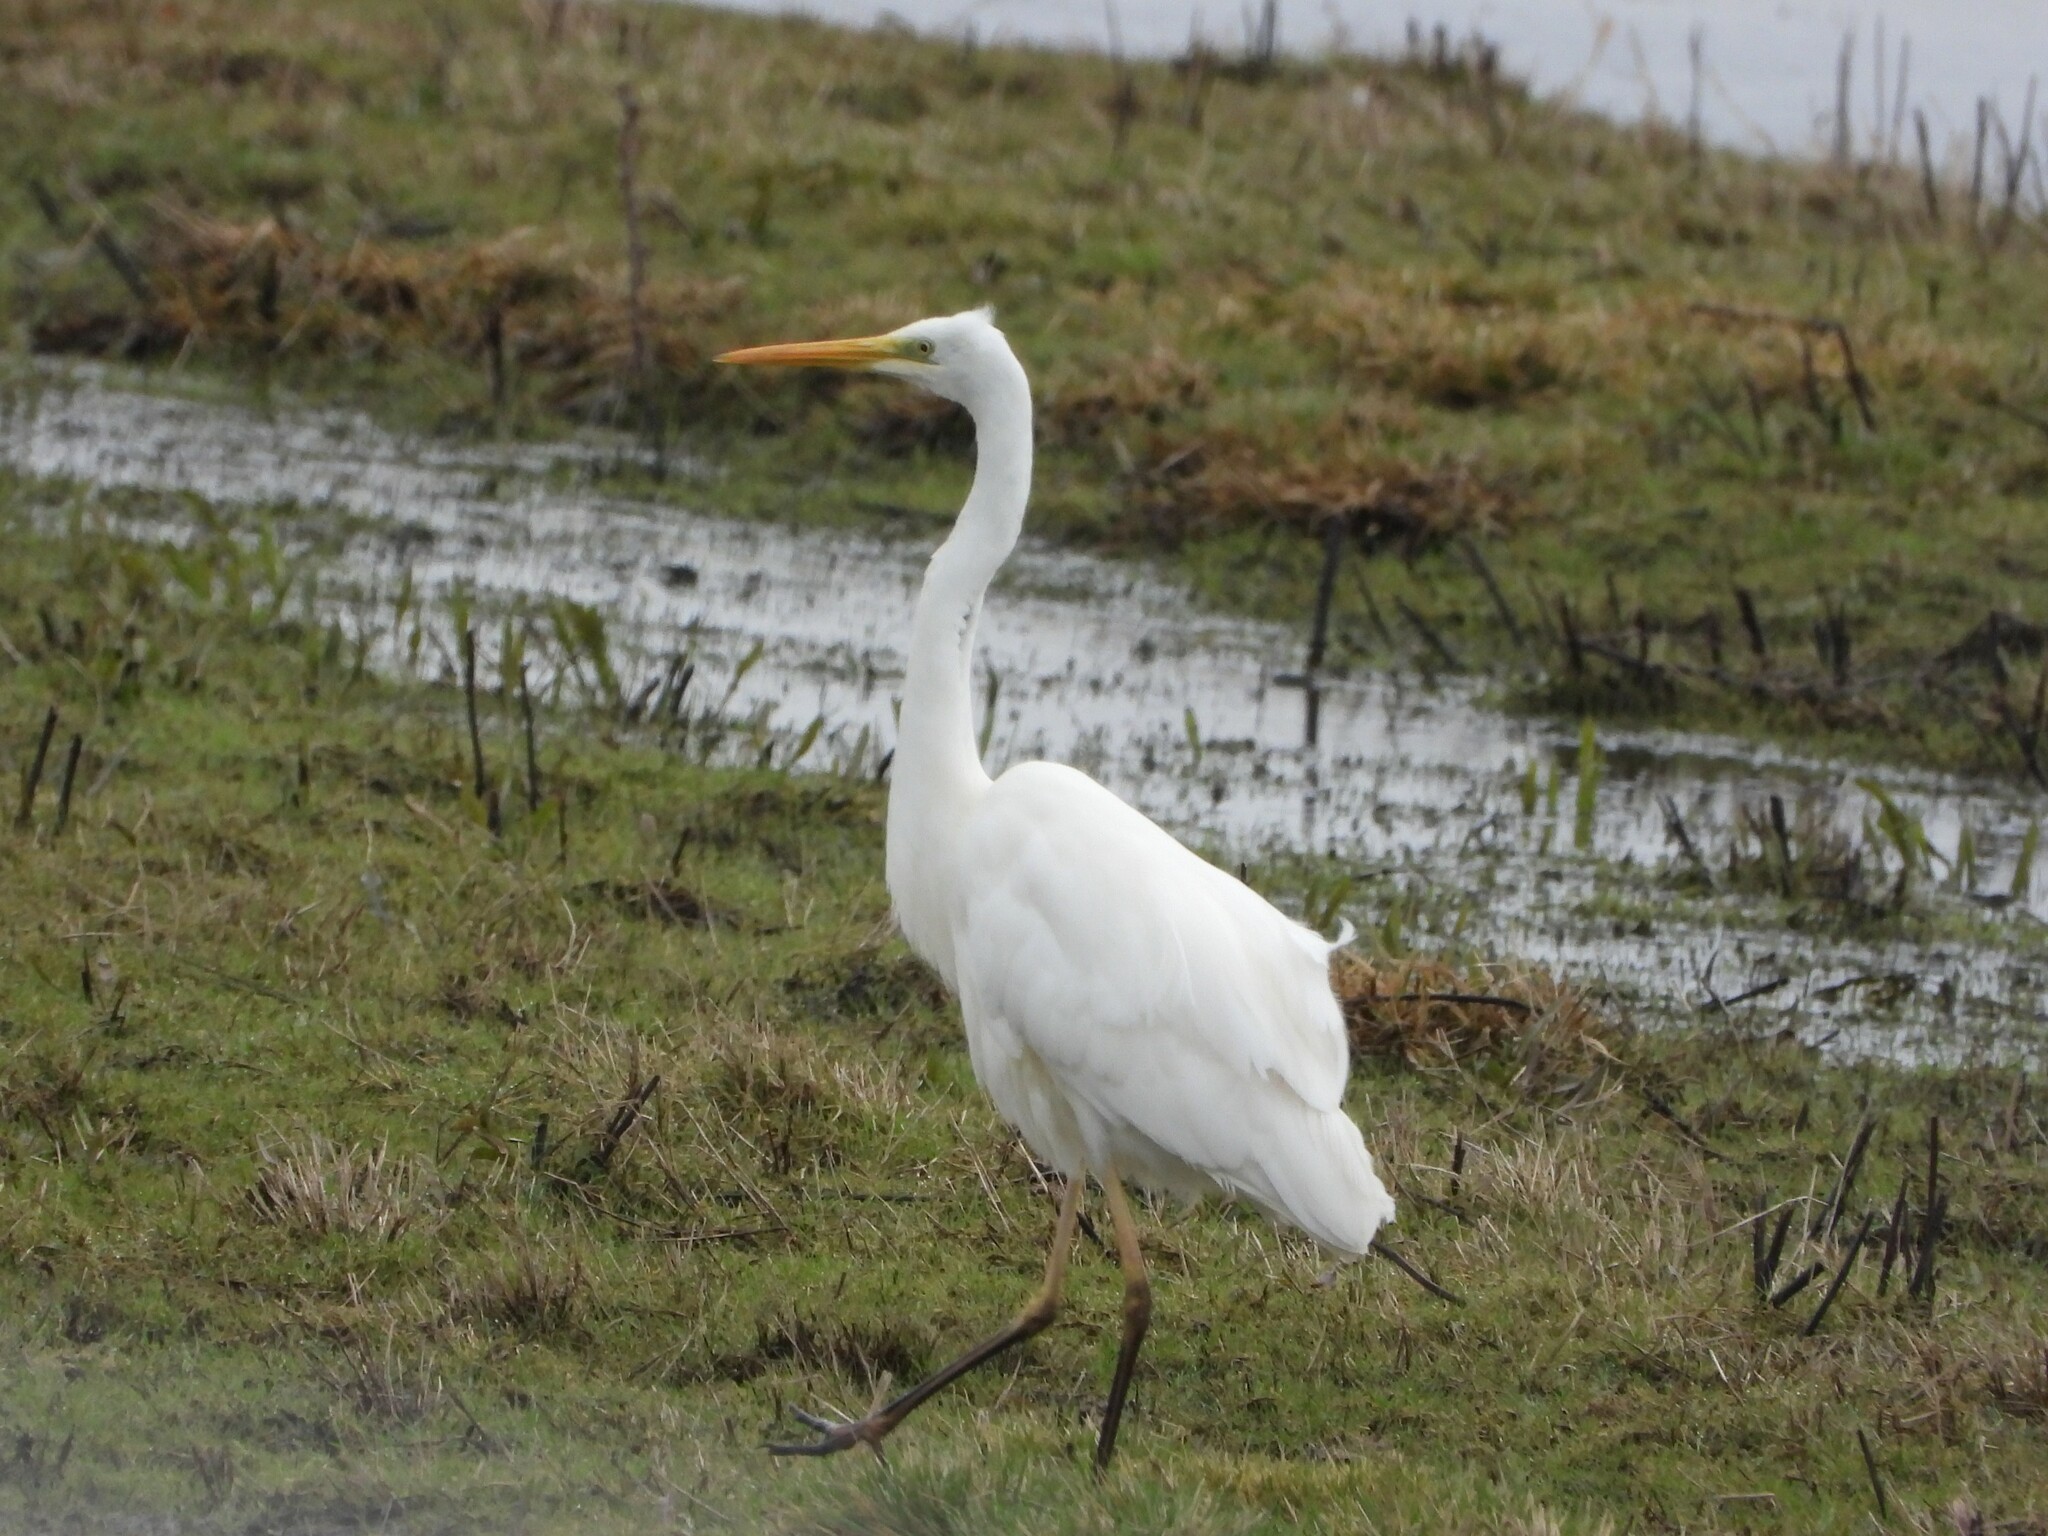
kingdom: Animalia
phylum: Chordata
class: Aves
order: Pelecaniformes
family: Ardeidae
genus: Ardea
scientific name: Ardea alba
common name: Great egret
